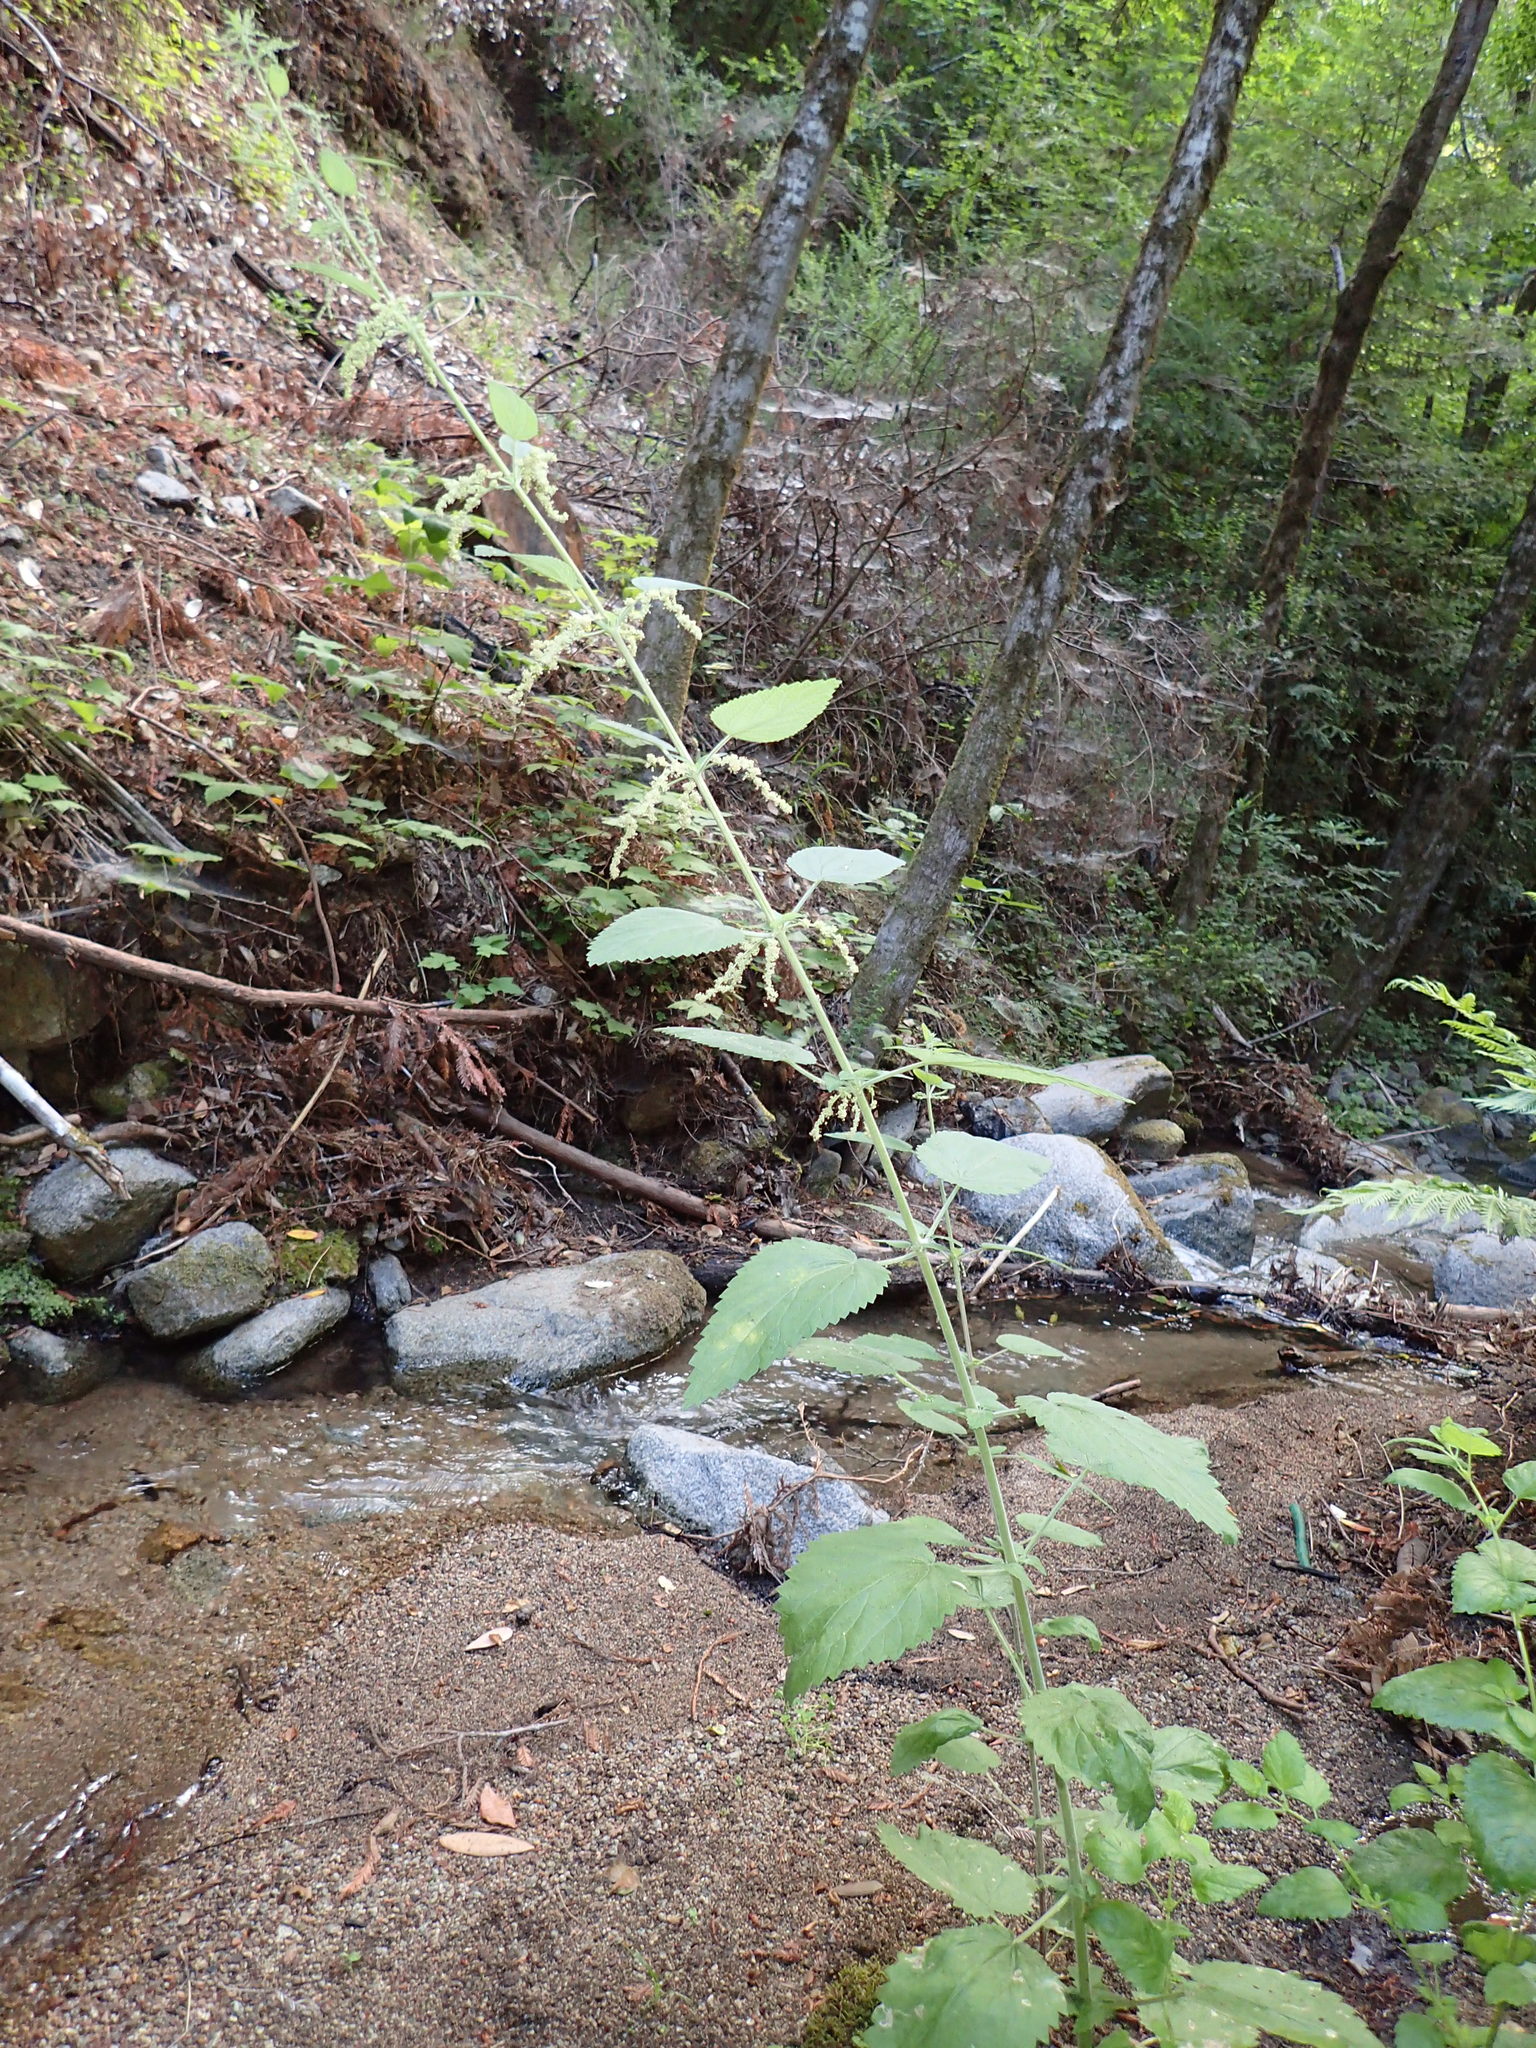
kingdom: Plantae
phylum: Tracheophyta
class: Magnoliopsida
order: Rosales
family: Urticaceae
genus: Urtica
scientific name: Urtica dioica
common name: Common nettle
